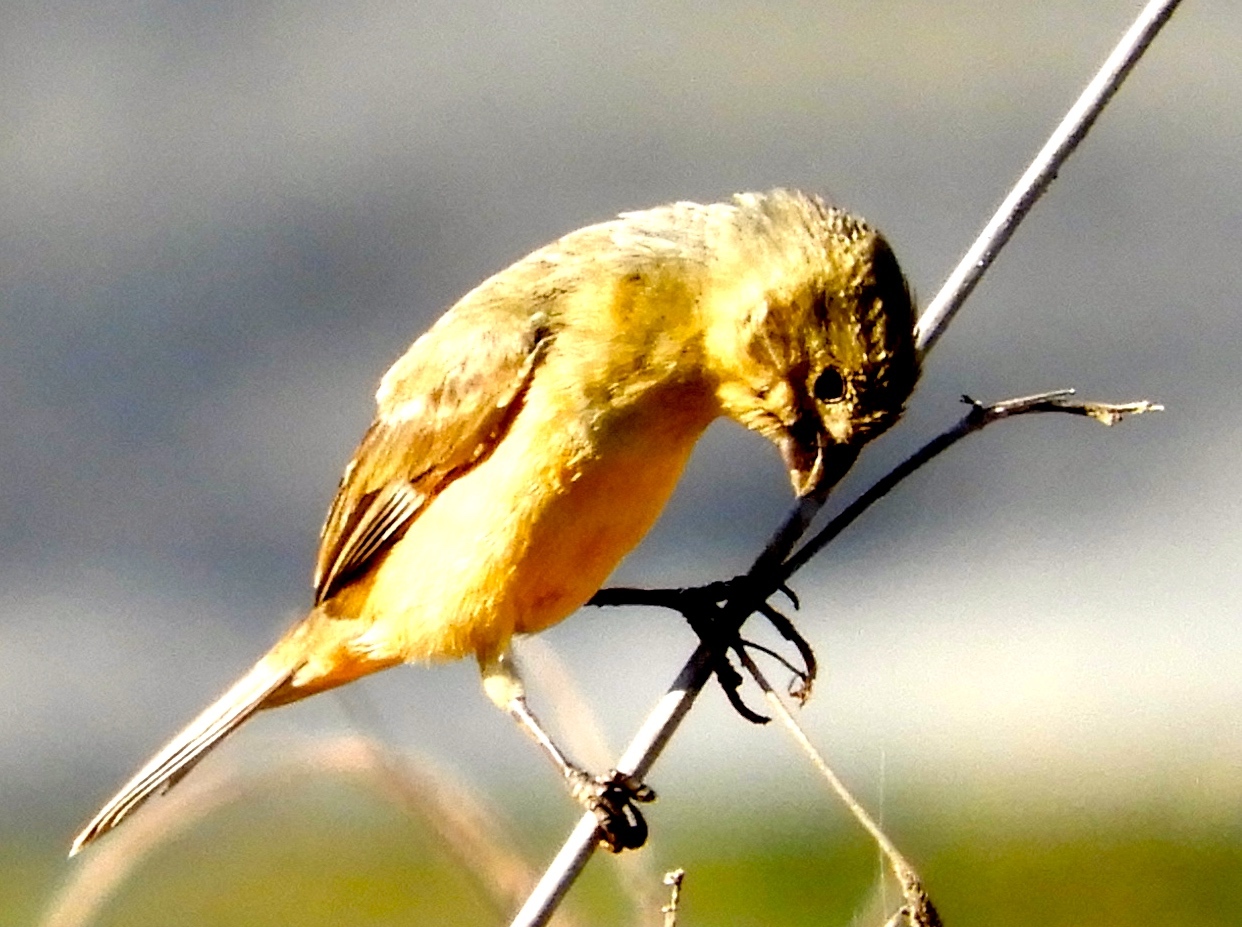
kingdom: Animalia
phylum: Chordata
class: Aves
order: Passeriformes
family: Thraupidae
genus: Sporophila
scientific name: Sporophila torqueola
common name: White-collared seedeater
